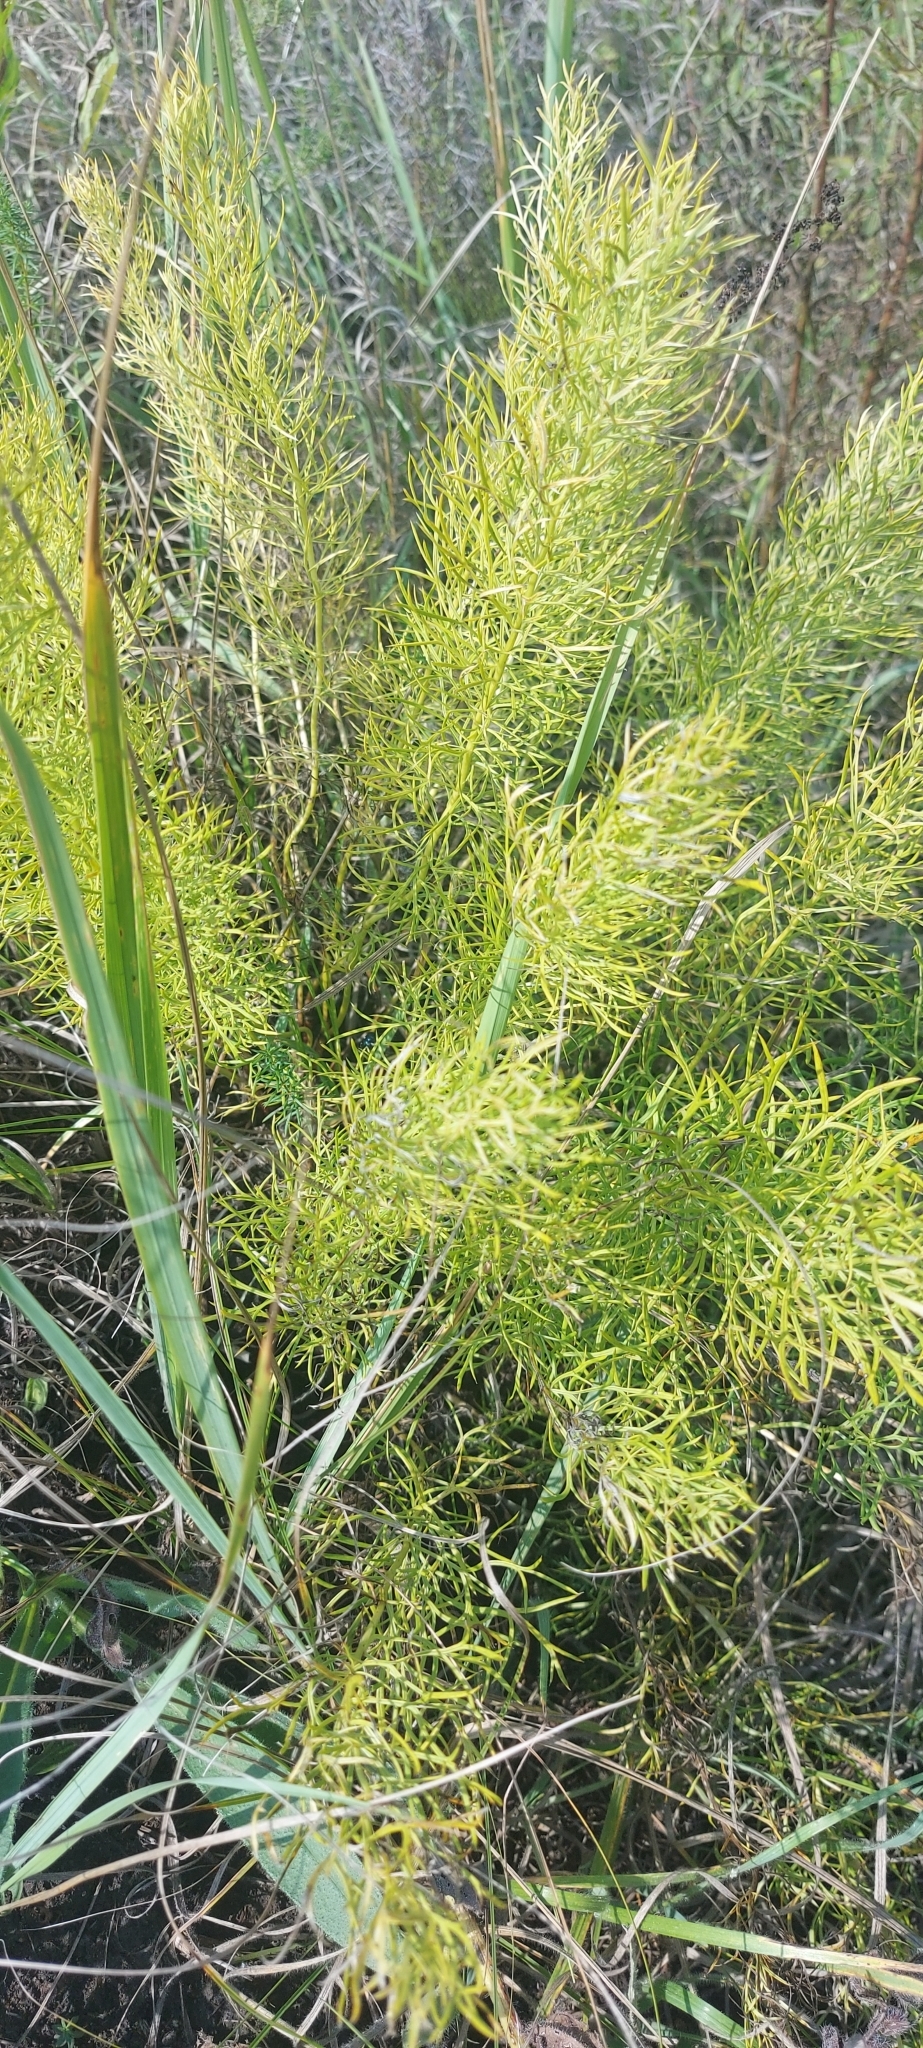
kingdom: Plantae
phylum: Tracheophyta
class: Magnoliopsida
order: Ranunculales
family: Ranunculaceae
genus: Adonis
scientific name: Adonis vernalis
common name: Yellow pheasants-eye
